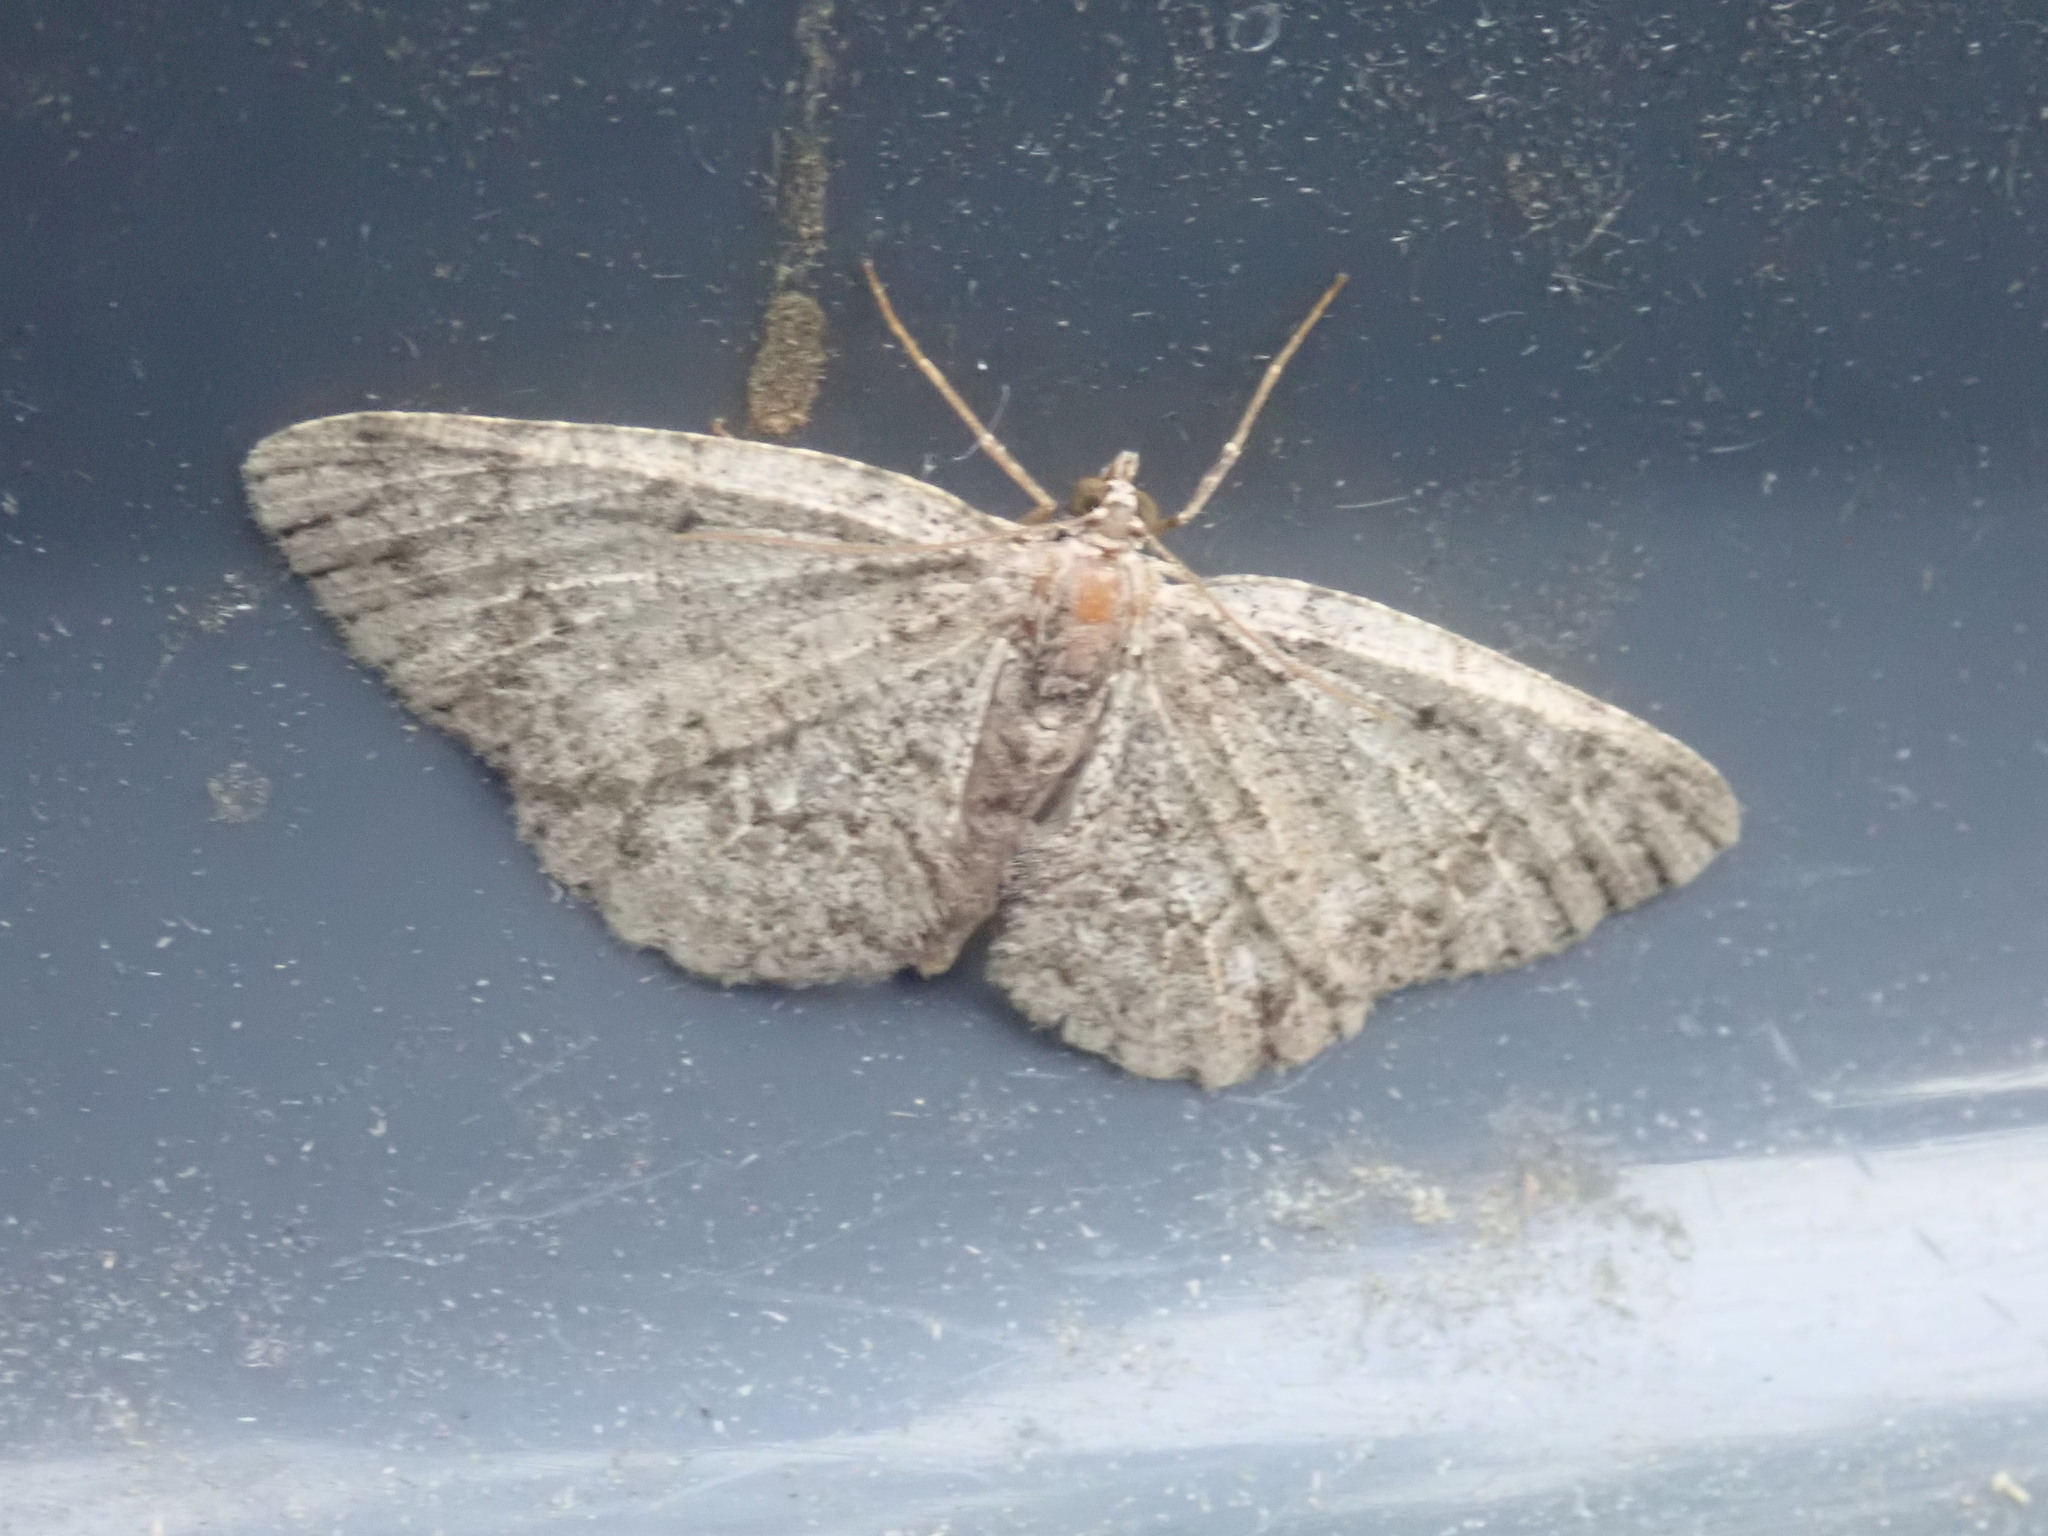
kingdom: Animalia
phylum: Arthropoda
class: Insecta
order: Lepidoptera
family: Geometridae
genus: Protoboarmia
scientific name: Protoboarmia porcelaria
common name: Porcelain gray
